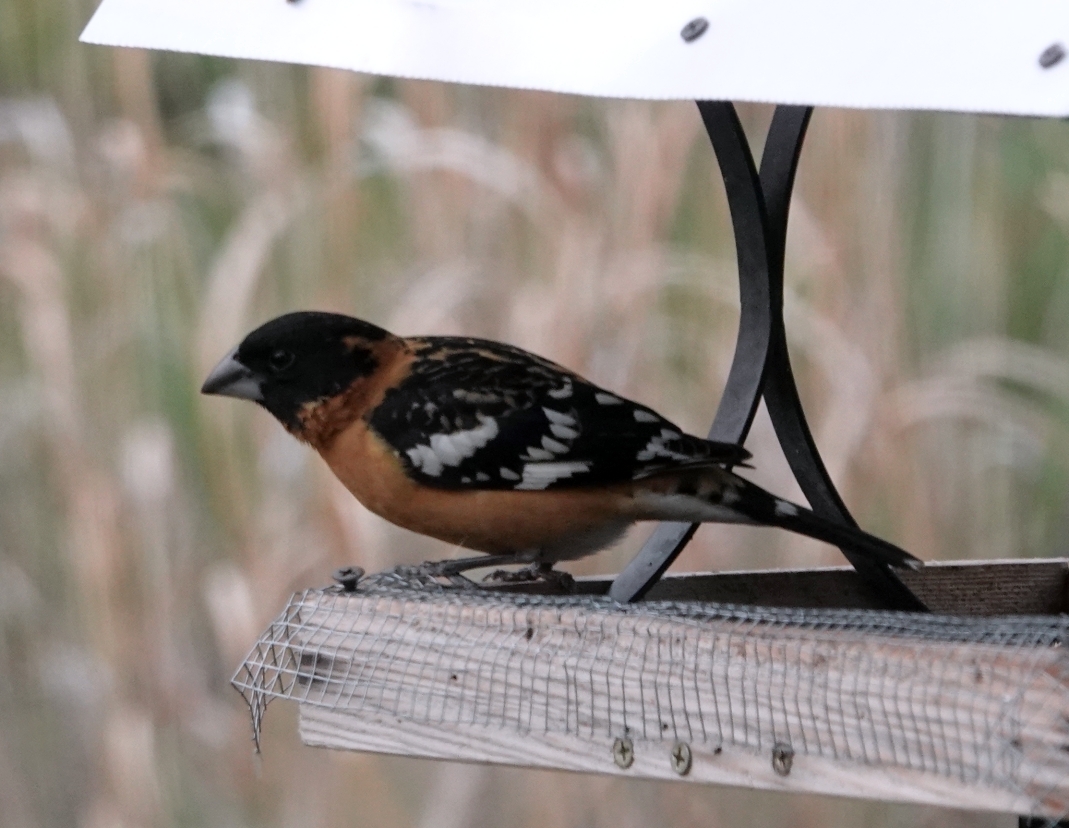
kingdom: Animalia
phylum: Chordata
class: Aves
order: Passeriformes
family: Cardinalidae
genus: Pheucticus
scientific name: Pheucticus melanocephalus
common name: Black-headed grosbeak
